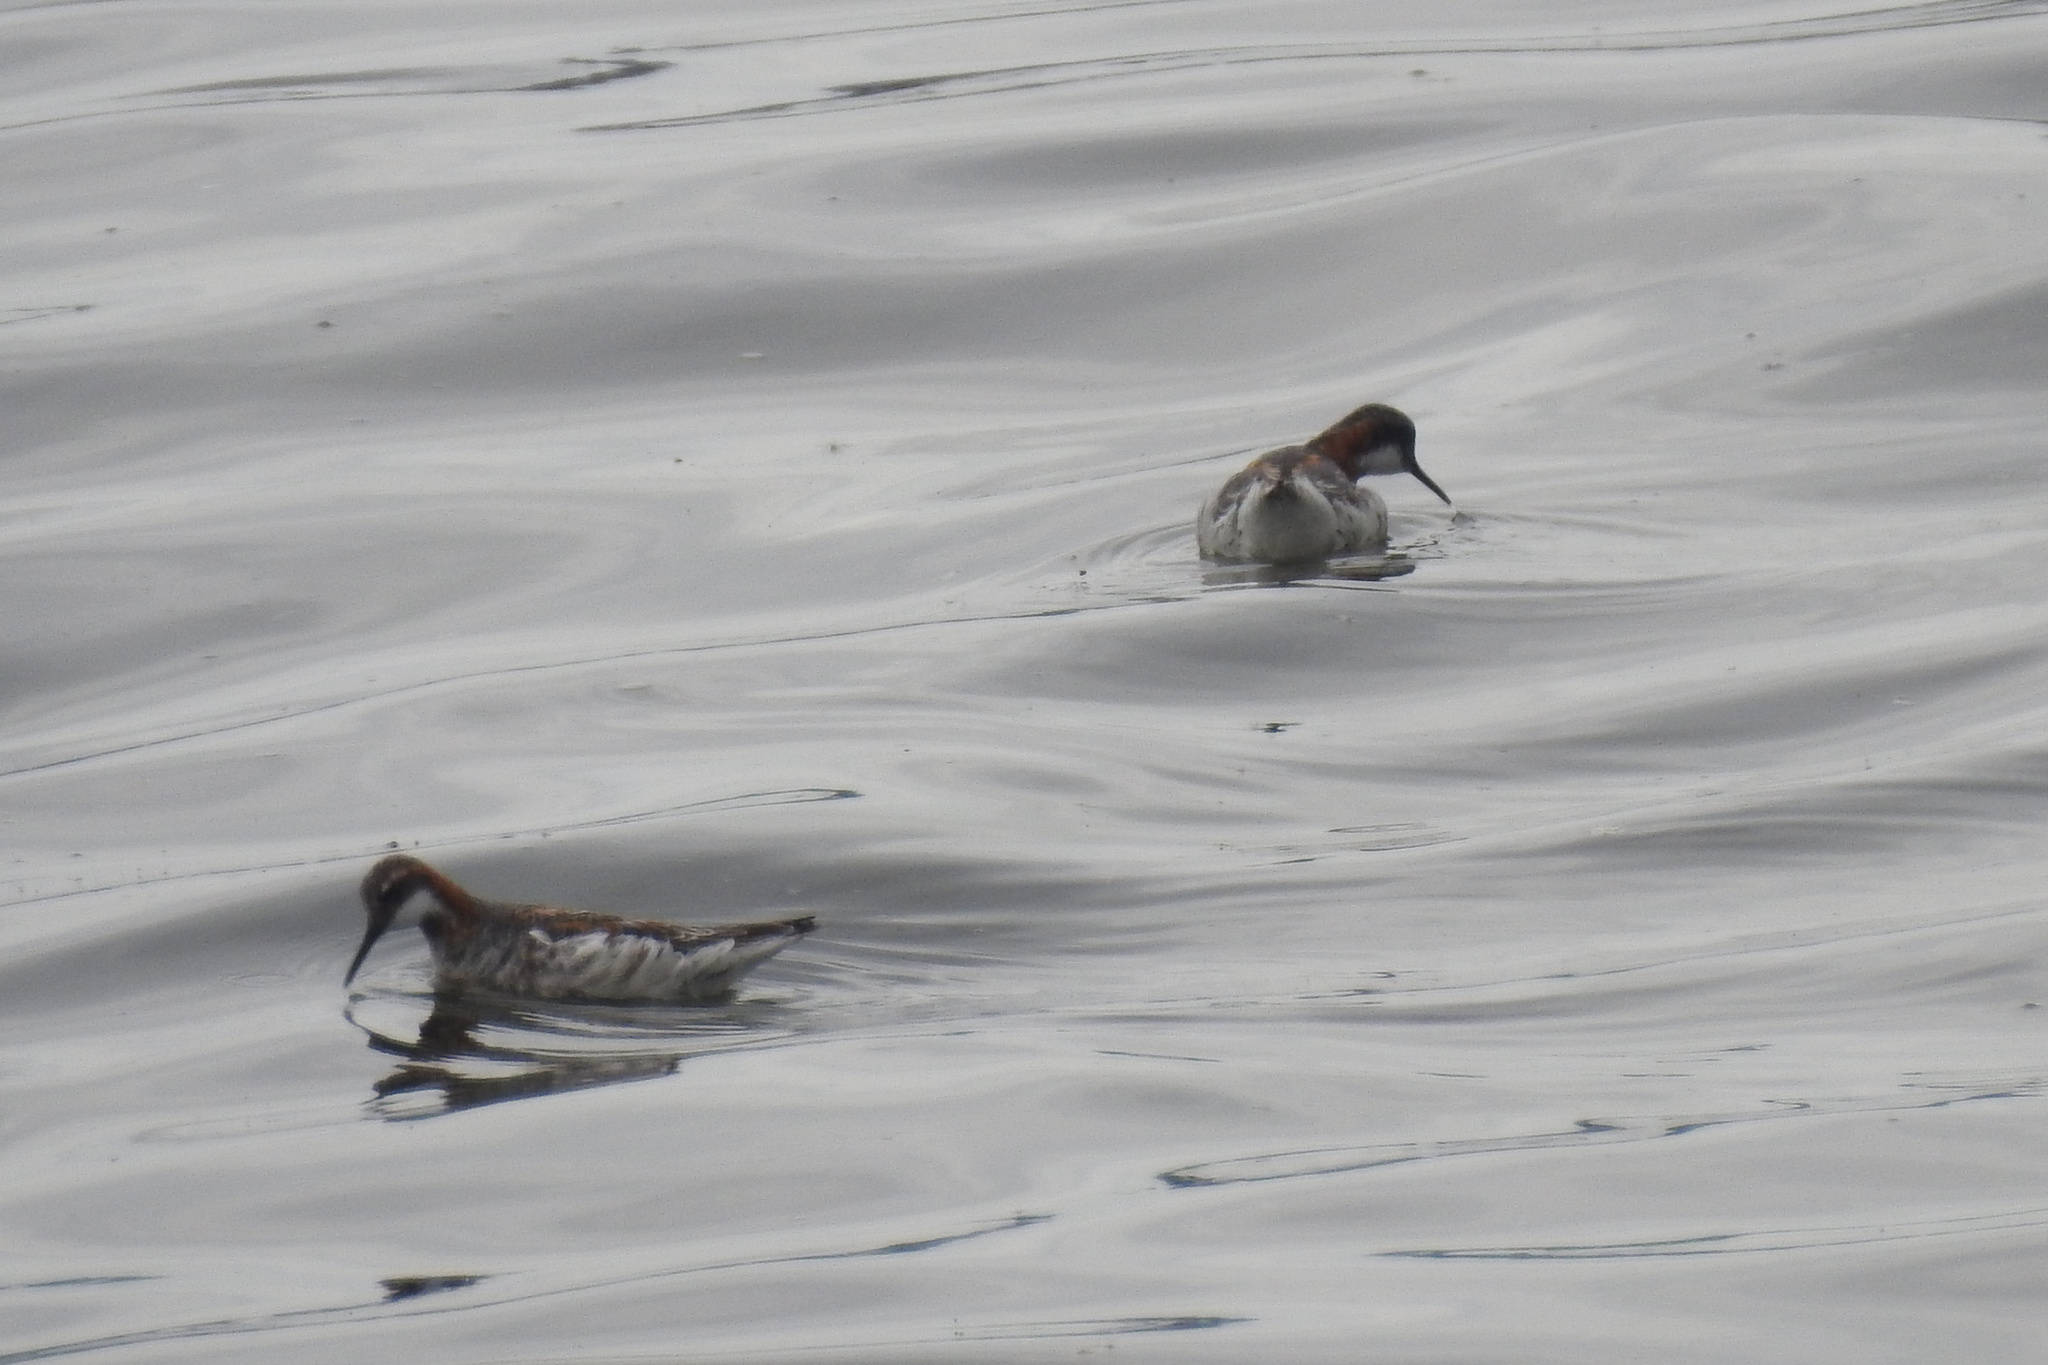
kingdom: Animalia
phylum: Chordata
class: Aves
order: Charadriiformes
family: Scolopacidae
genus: Phalaropus
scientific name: Phalaropus lobatus
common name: Red-necked phalarope
